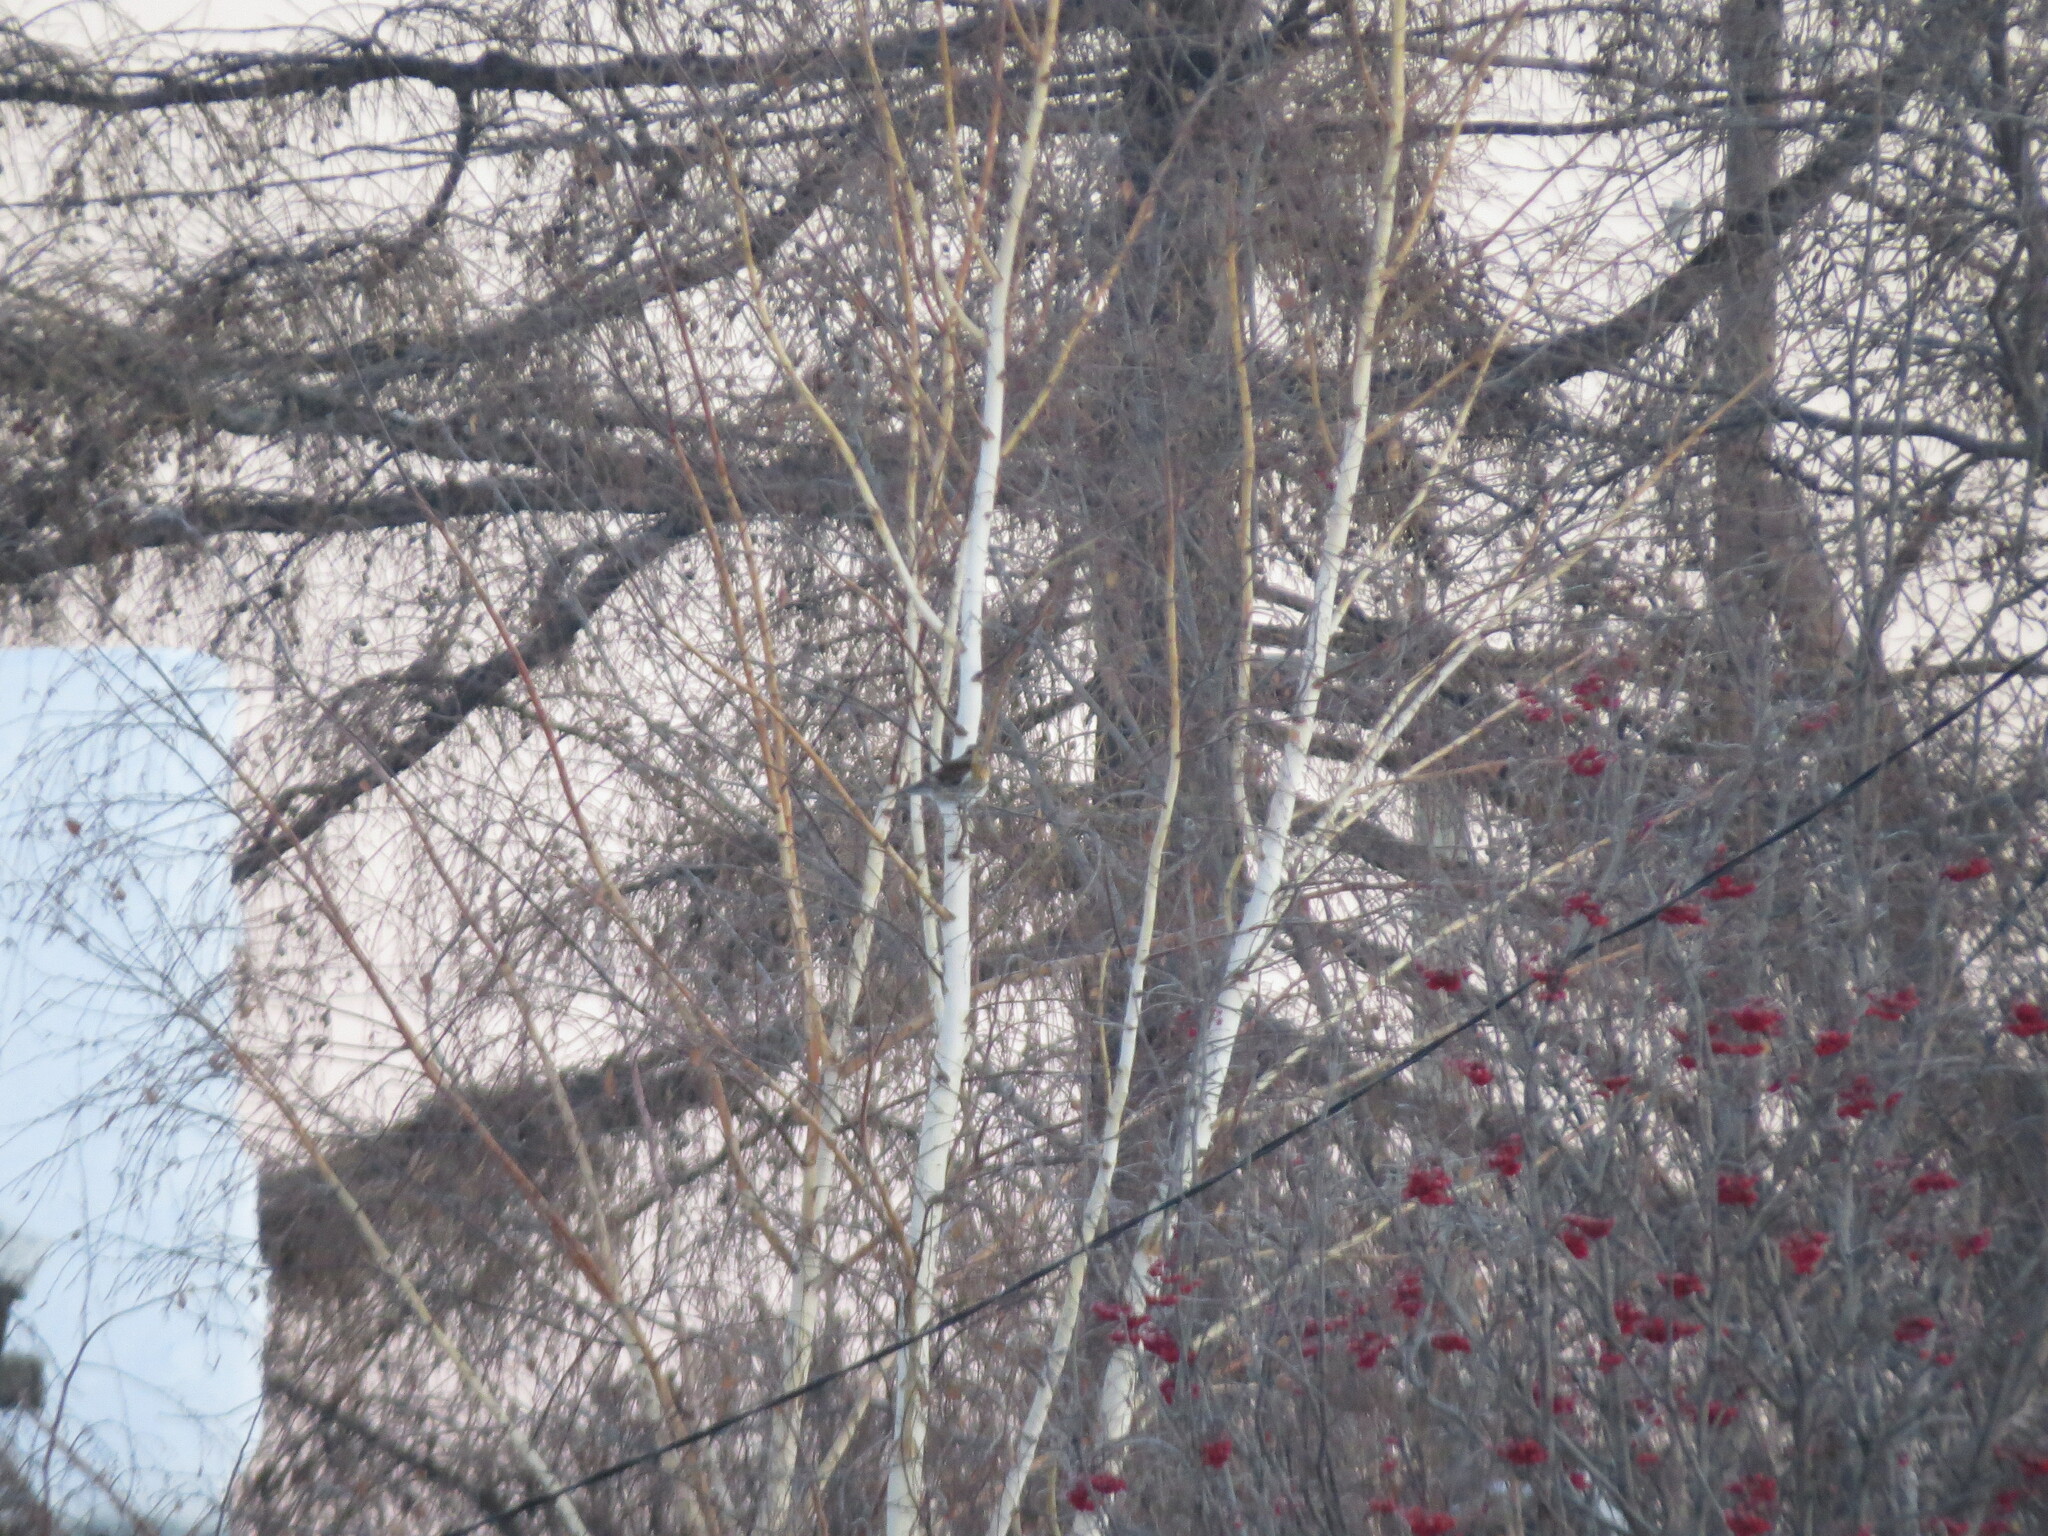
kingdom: Animalia
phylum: Chordata
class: Aves
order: Passeriformes
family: Turdidae
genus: Turdus
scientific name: Turdus pilaris
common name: Fieldfare
